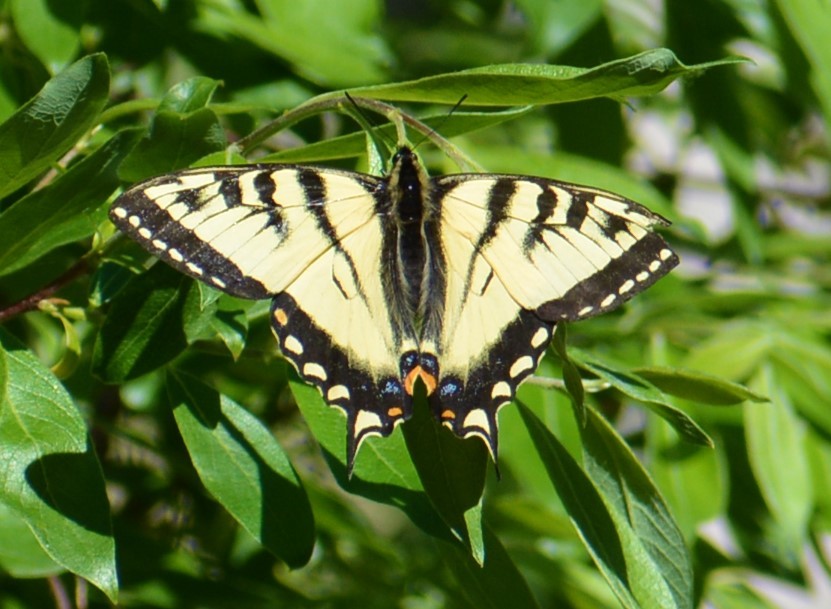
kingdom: Animalia
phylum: Arthropoda
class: Insecta
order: Lepidoptera
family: Papilionidae
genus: Papilio
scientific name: Papilio canadensis
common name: Canadian tiger swallowtail
